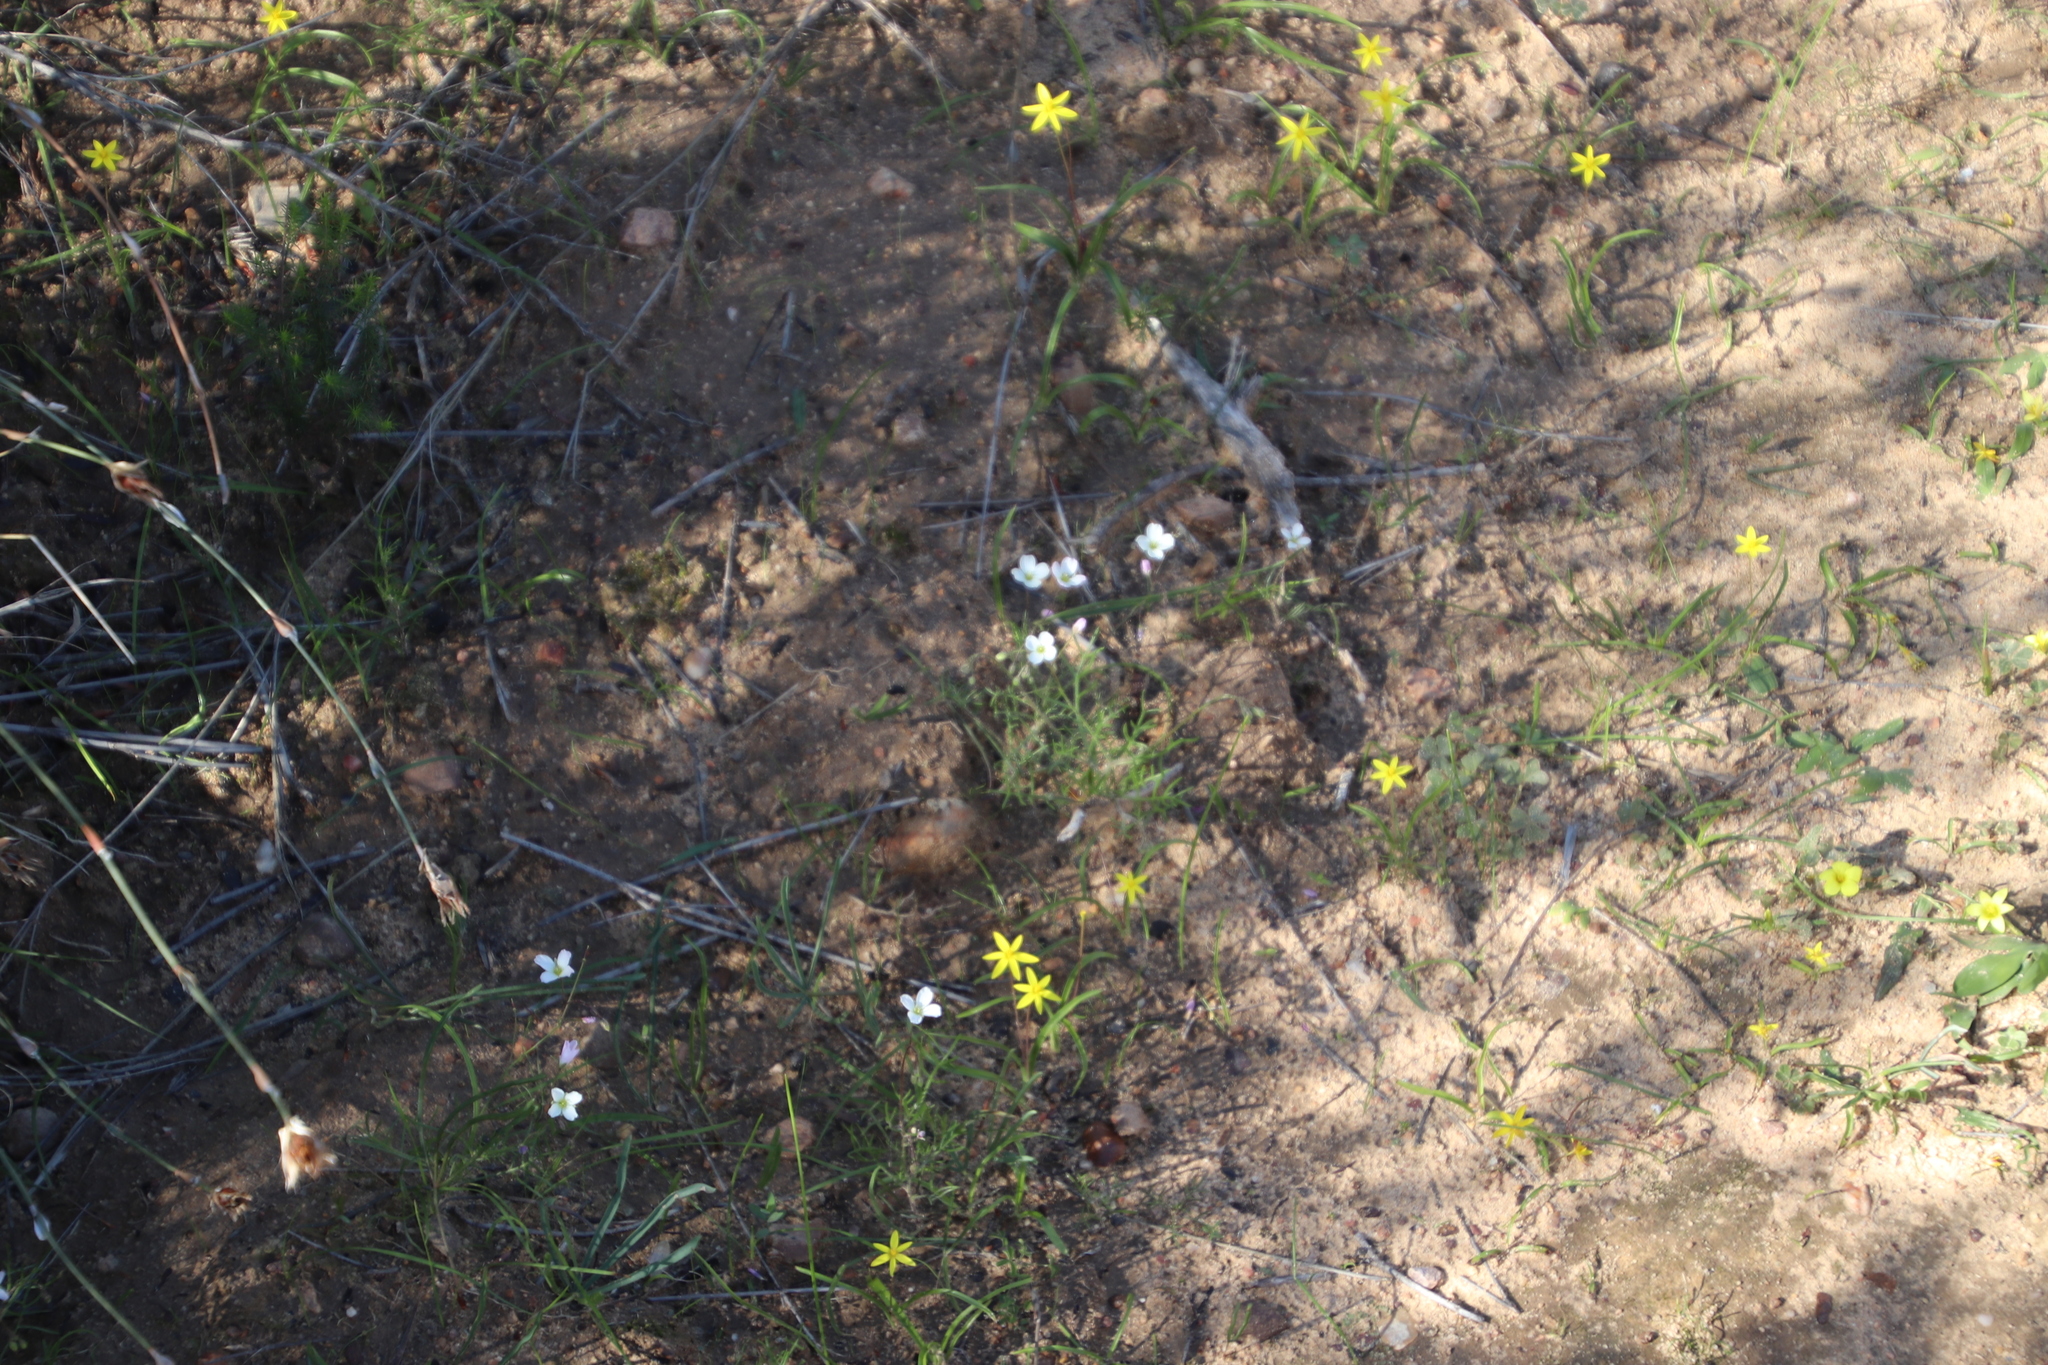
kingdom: Plantae
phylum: Tracheophyta
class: Magnoliopsida
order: Brassicales
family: Brassicaceae
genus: Heliophila
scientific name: Heliophila thunbergii
